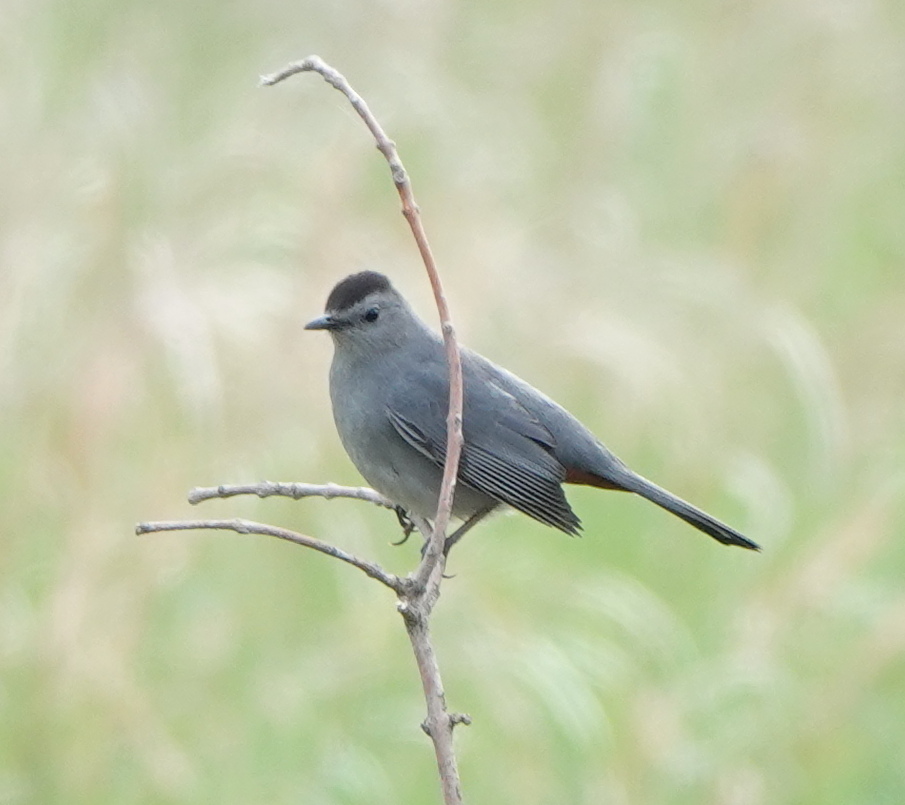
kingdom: Animalia
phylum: Chordata
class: Aves
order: Passeriformes
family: Mimidae
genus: Dumetella
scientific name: Dumetella carolinensis
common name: Gray catbird
